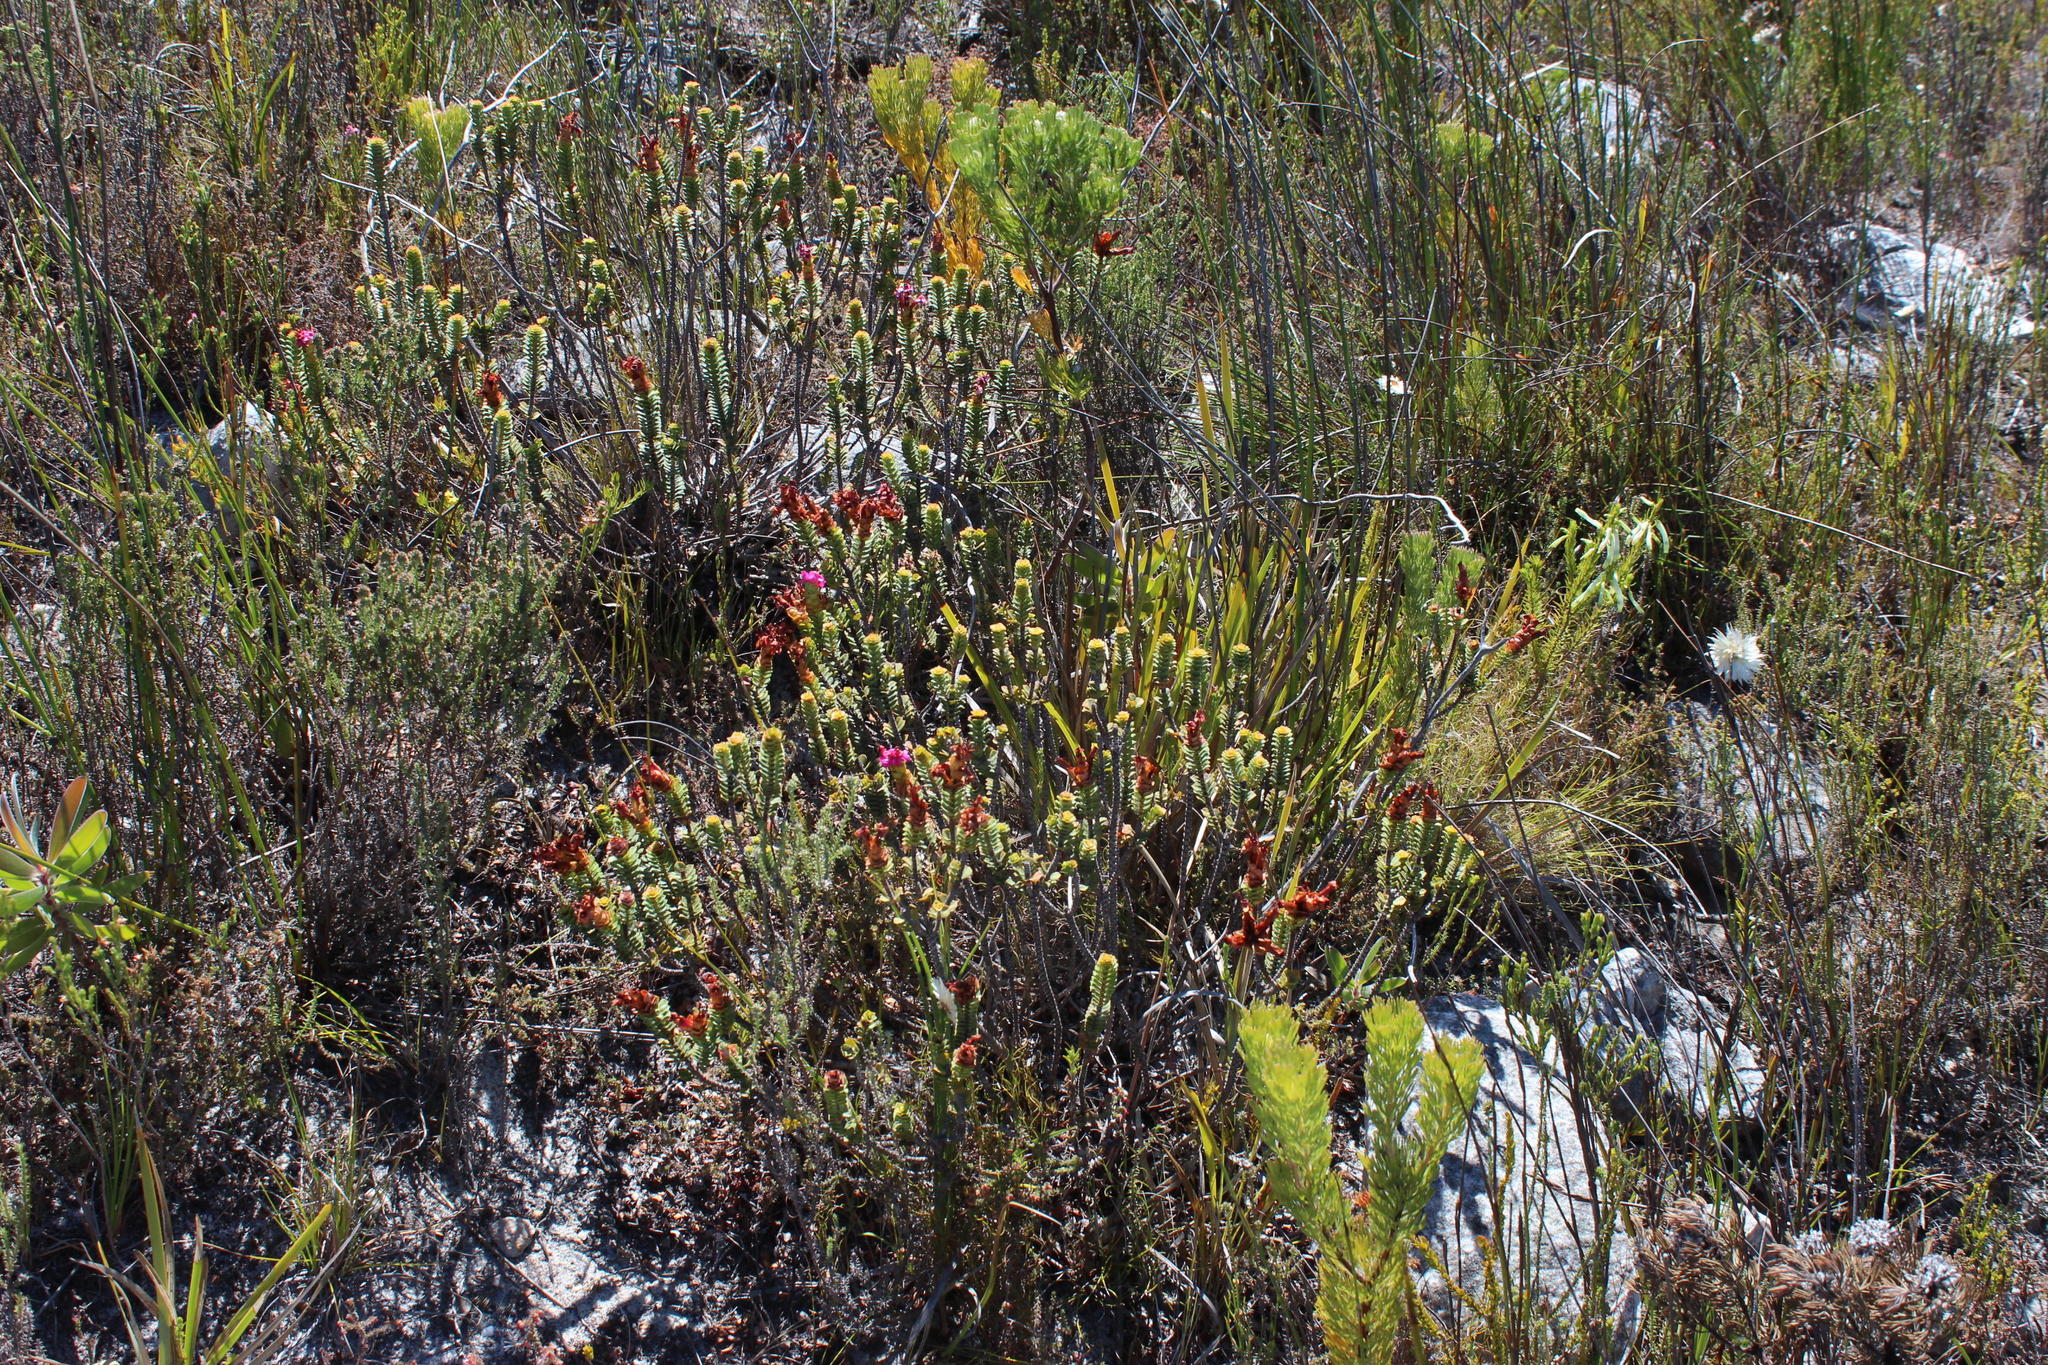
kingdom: Plantae
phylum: Tracheophyta
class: Magnoliopsida
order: Myrtales
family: Penaeaceae
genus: Saltera
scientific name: Saltera sarcocolla
